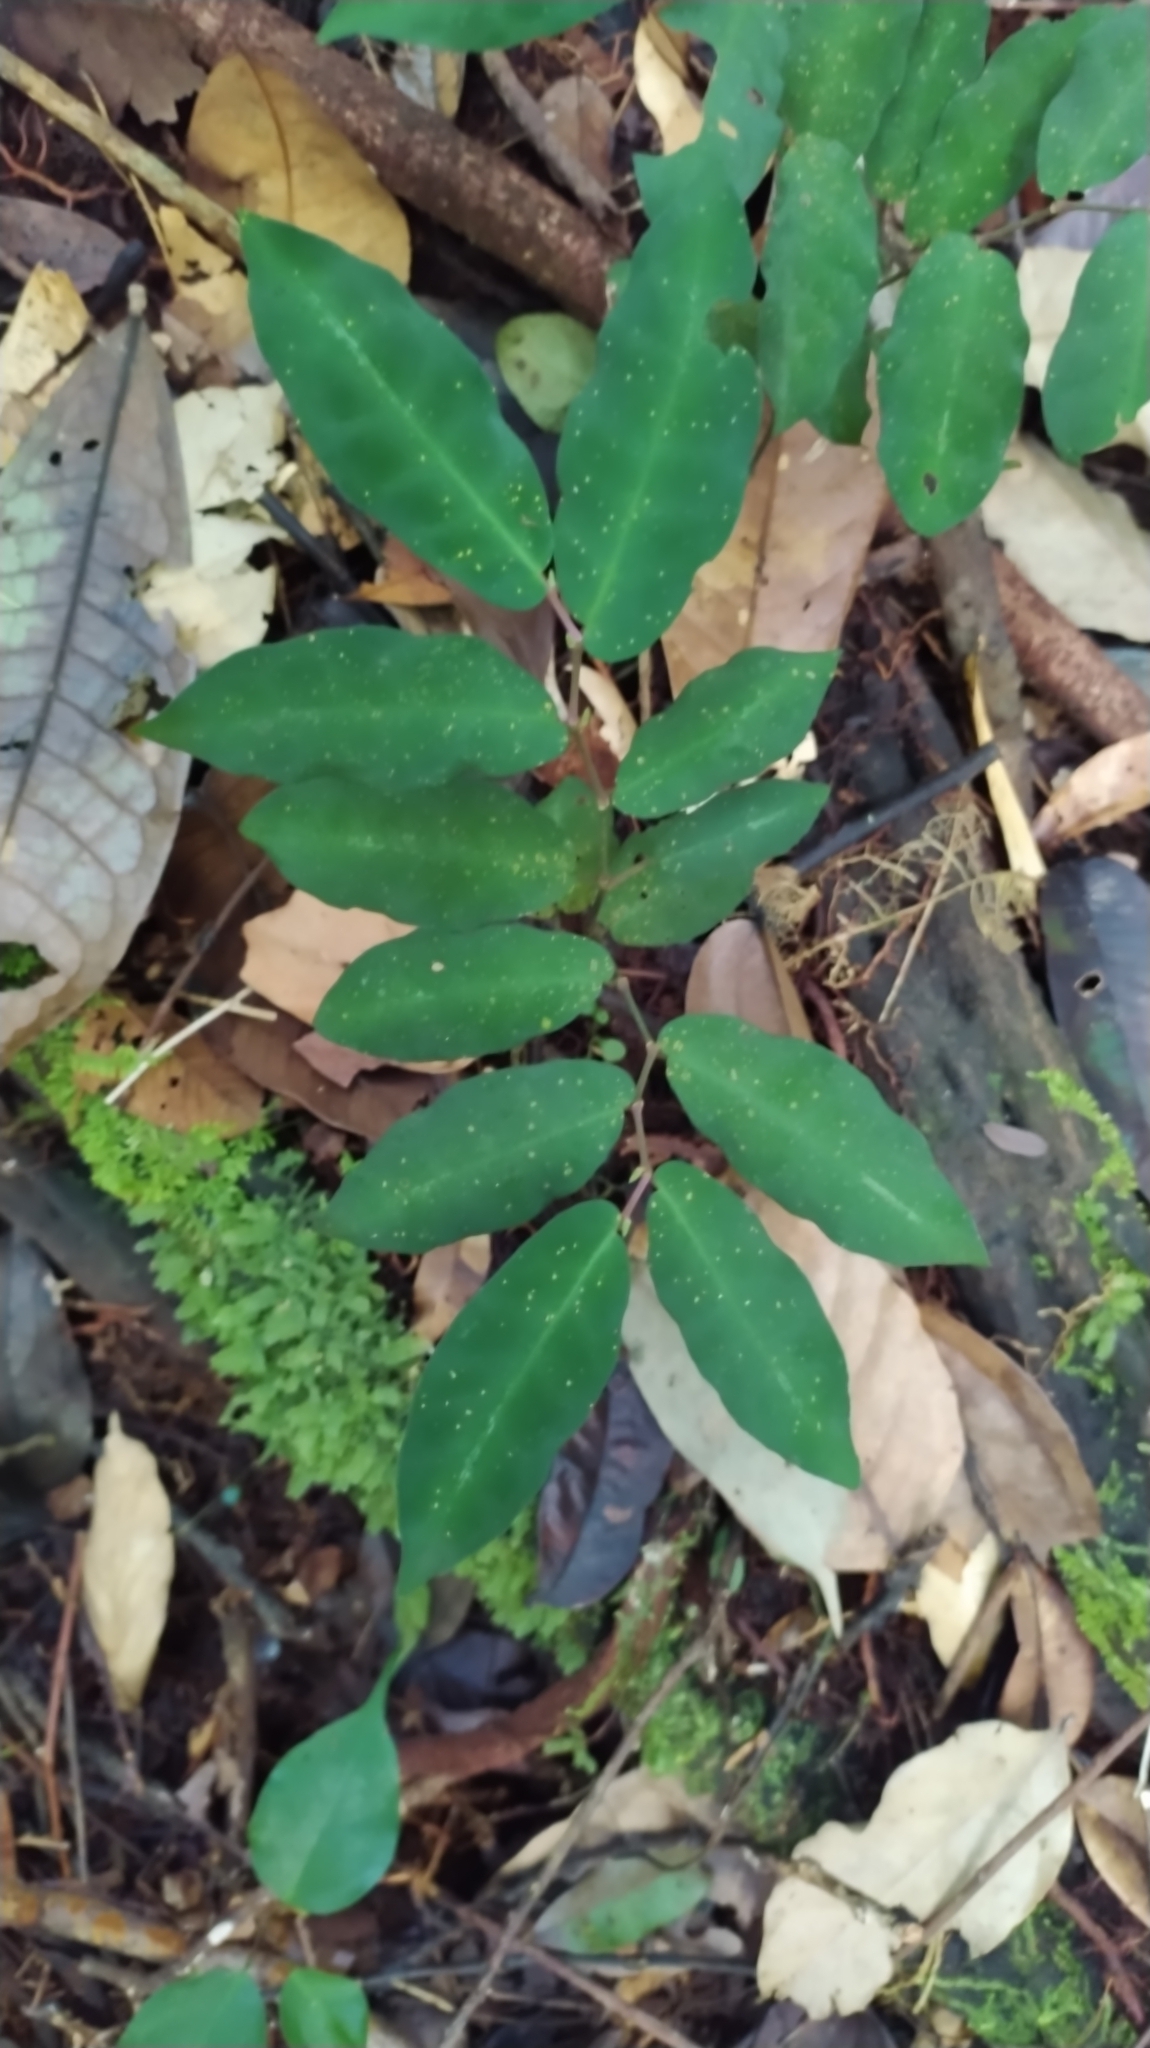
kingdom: Plantae
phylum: Tracheophyta
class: Magnoliopsida
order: Piperales
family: Piperaceae
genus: Piper
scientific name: Piper consanguineum
